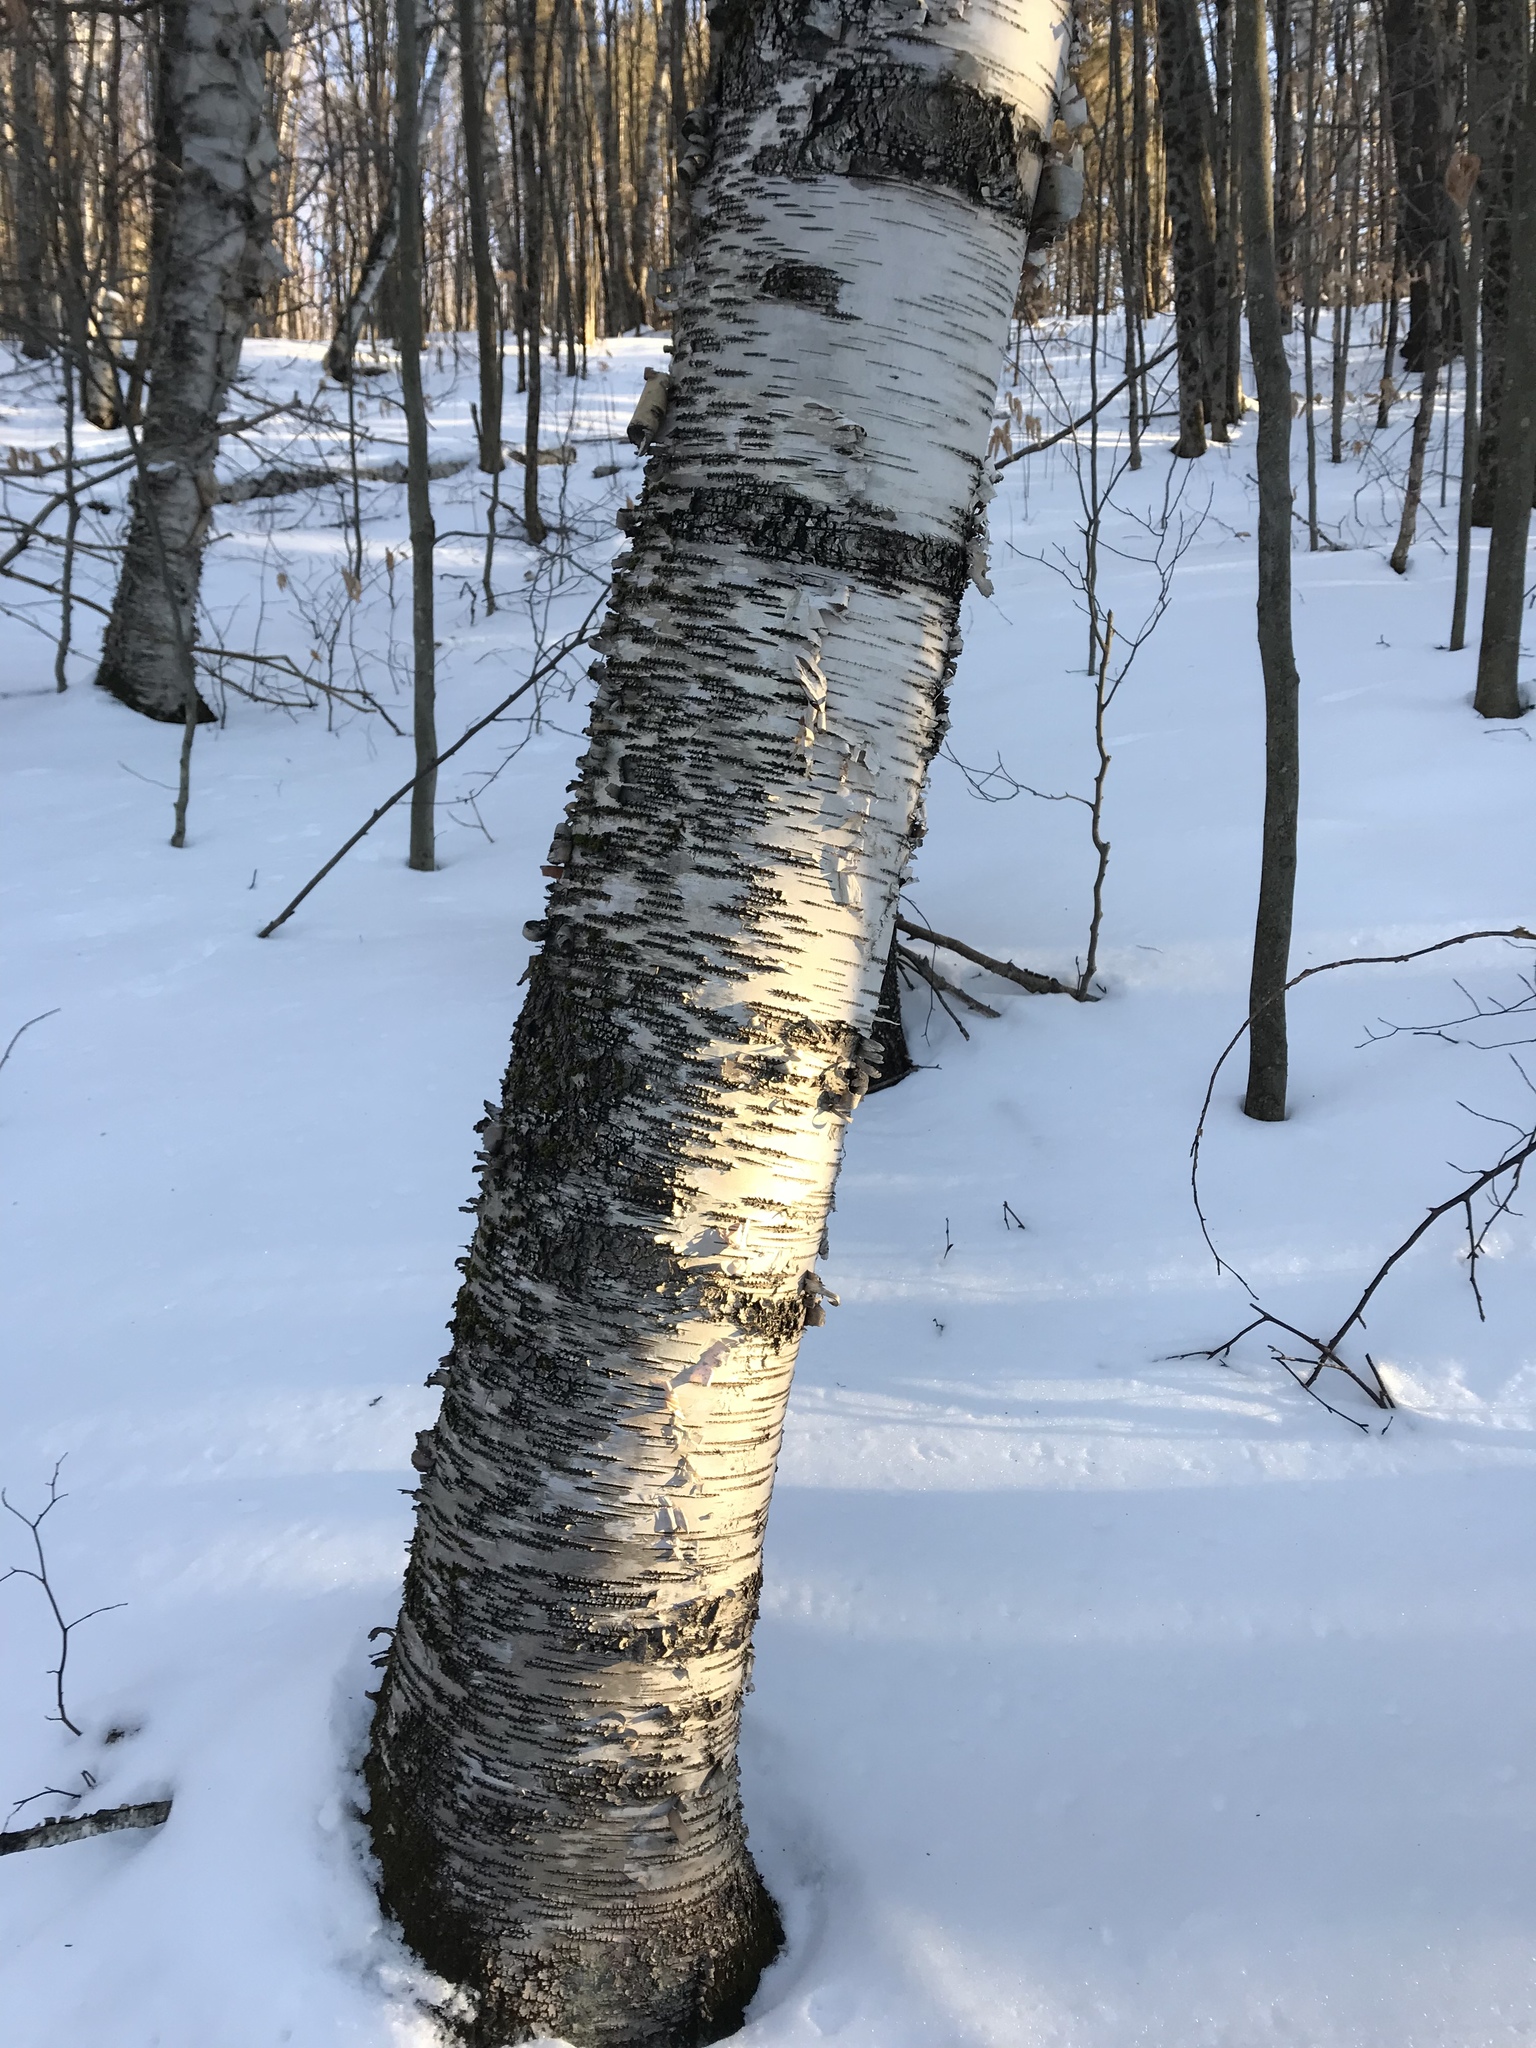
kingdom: Plantae
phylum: Tracheophyta
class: Magnoliopsida
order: Fagales
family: Betulaceae
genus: Betula
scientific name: Betula papyrifera
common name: Paper birch
